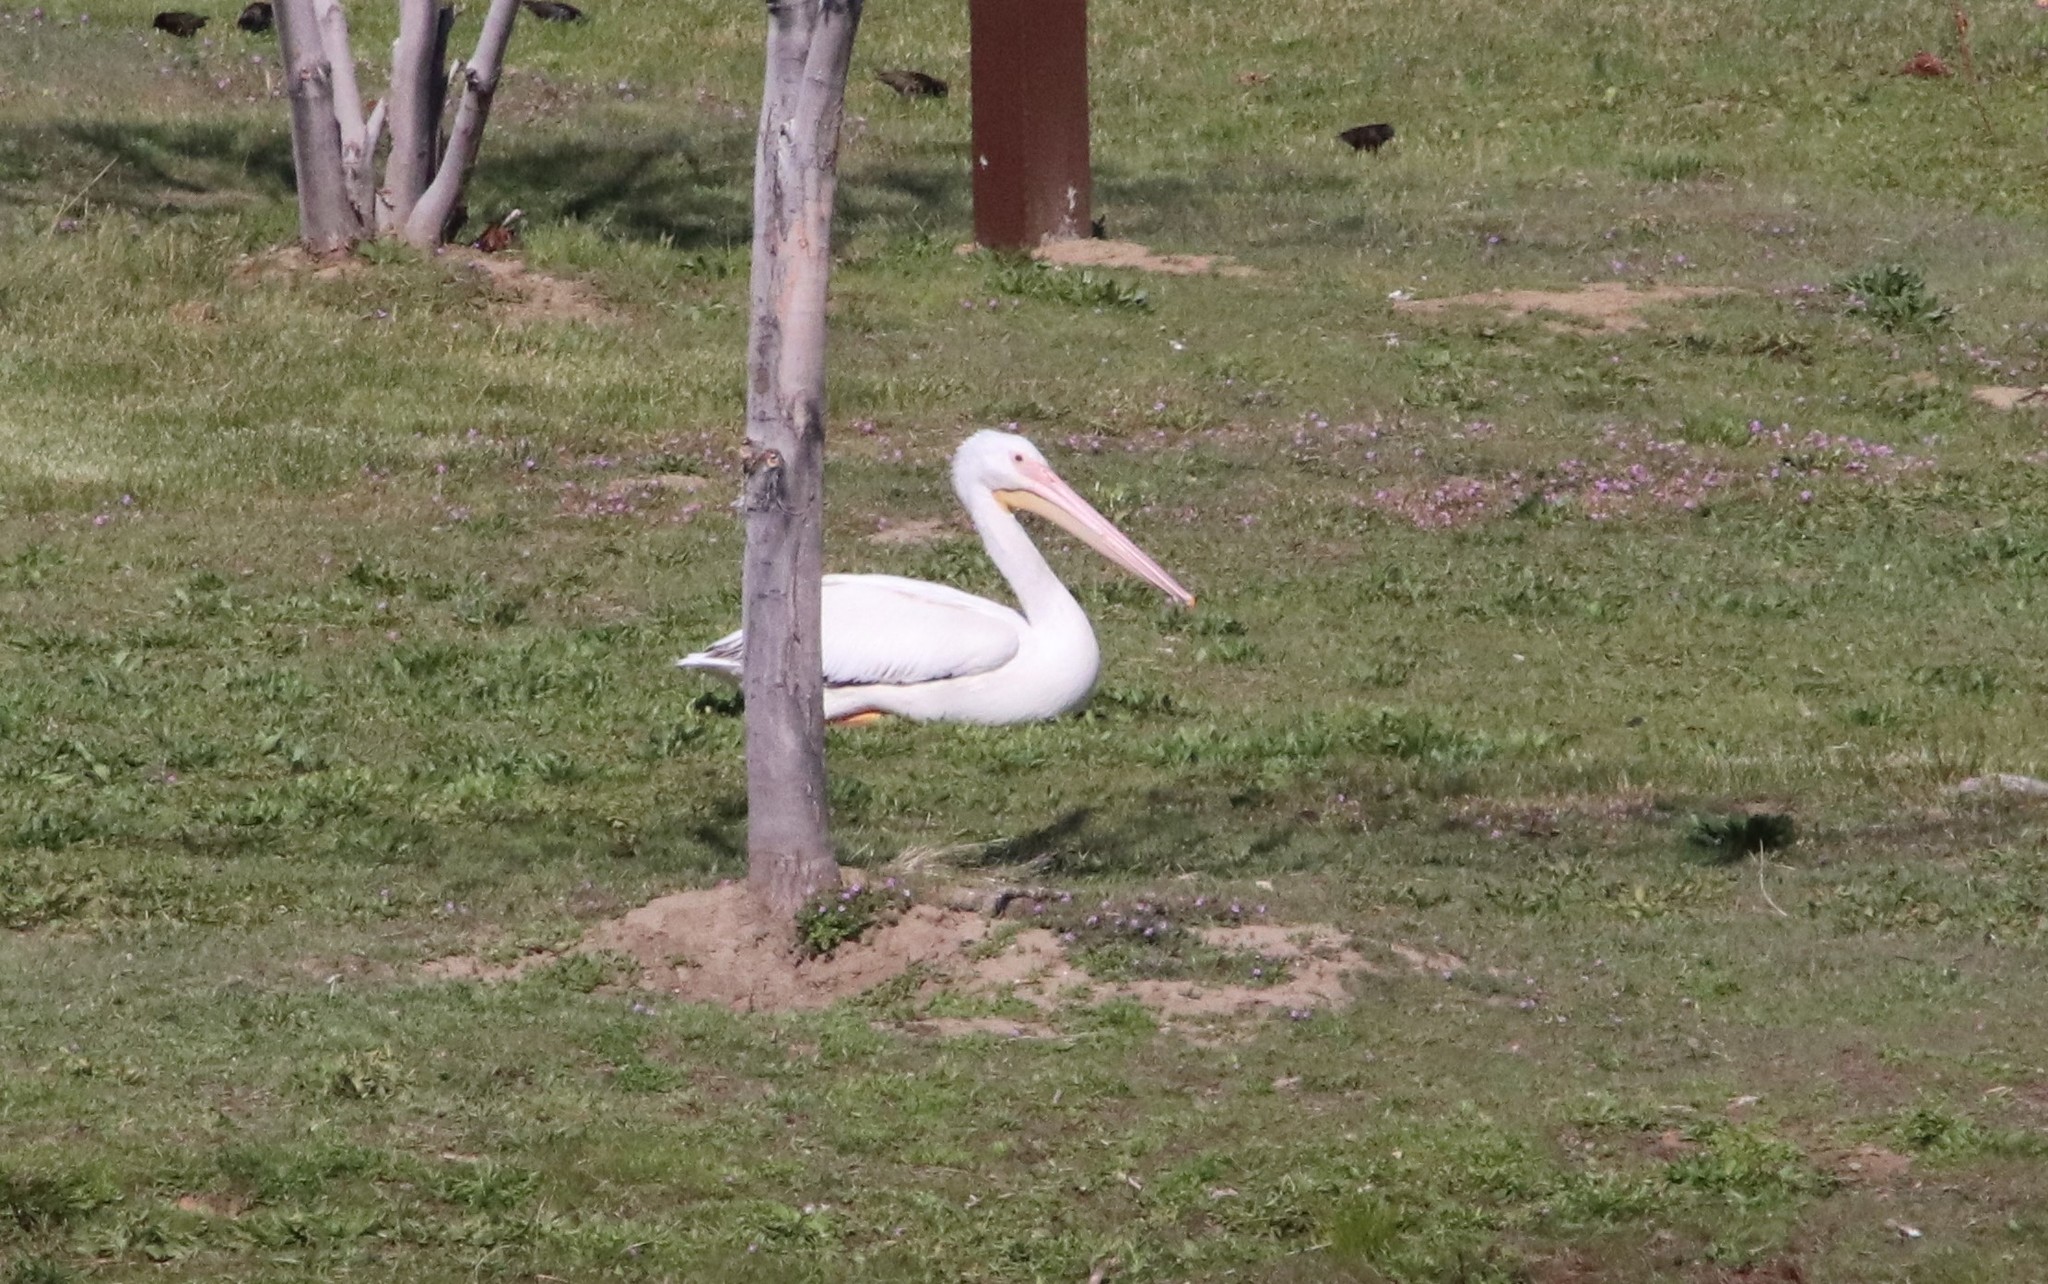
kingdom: Animalia
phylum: Chordata
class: Aves
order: Pelecaniformes
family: Pelecanidae
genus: Pelecanus
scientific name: Pelecanus erythrorhynchos
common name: American white pelican
